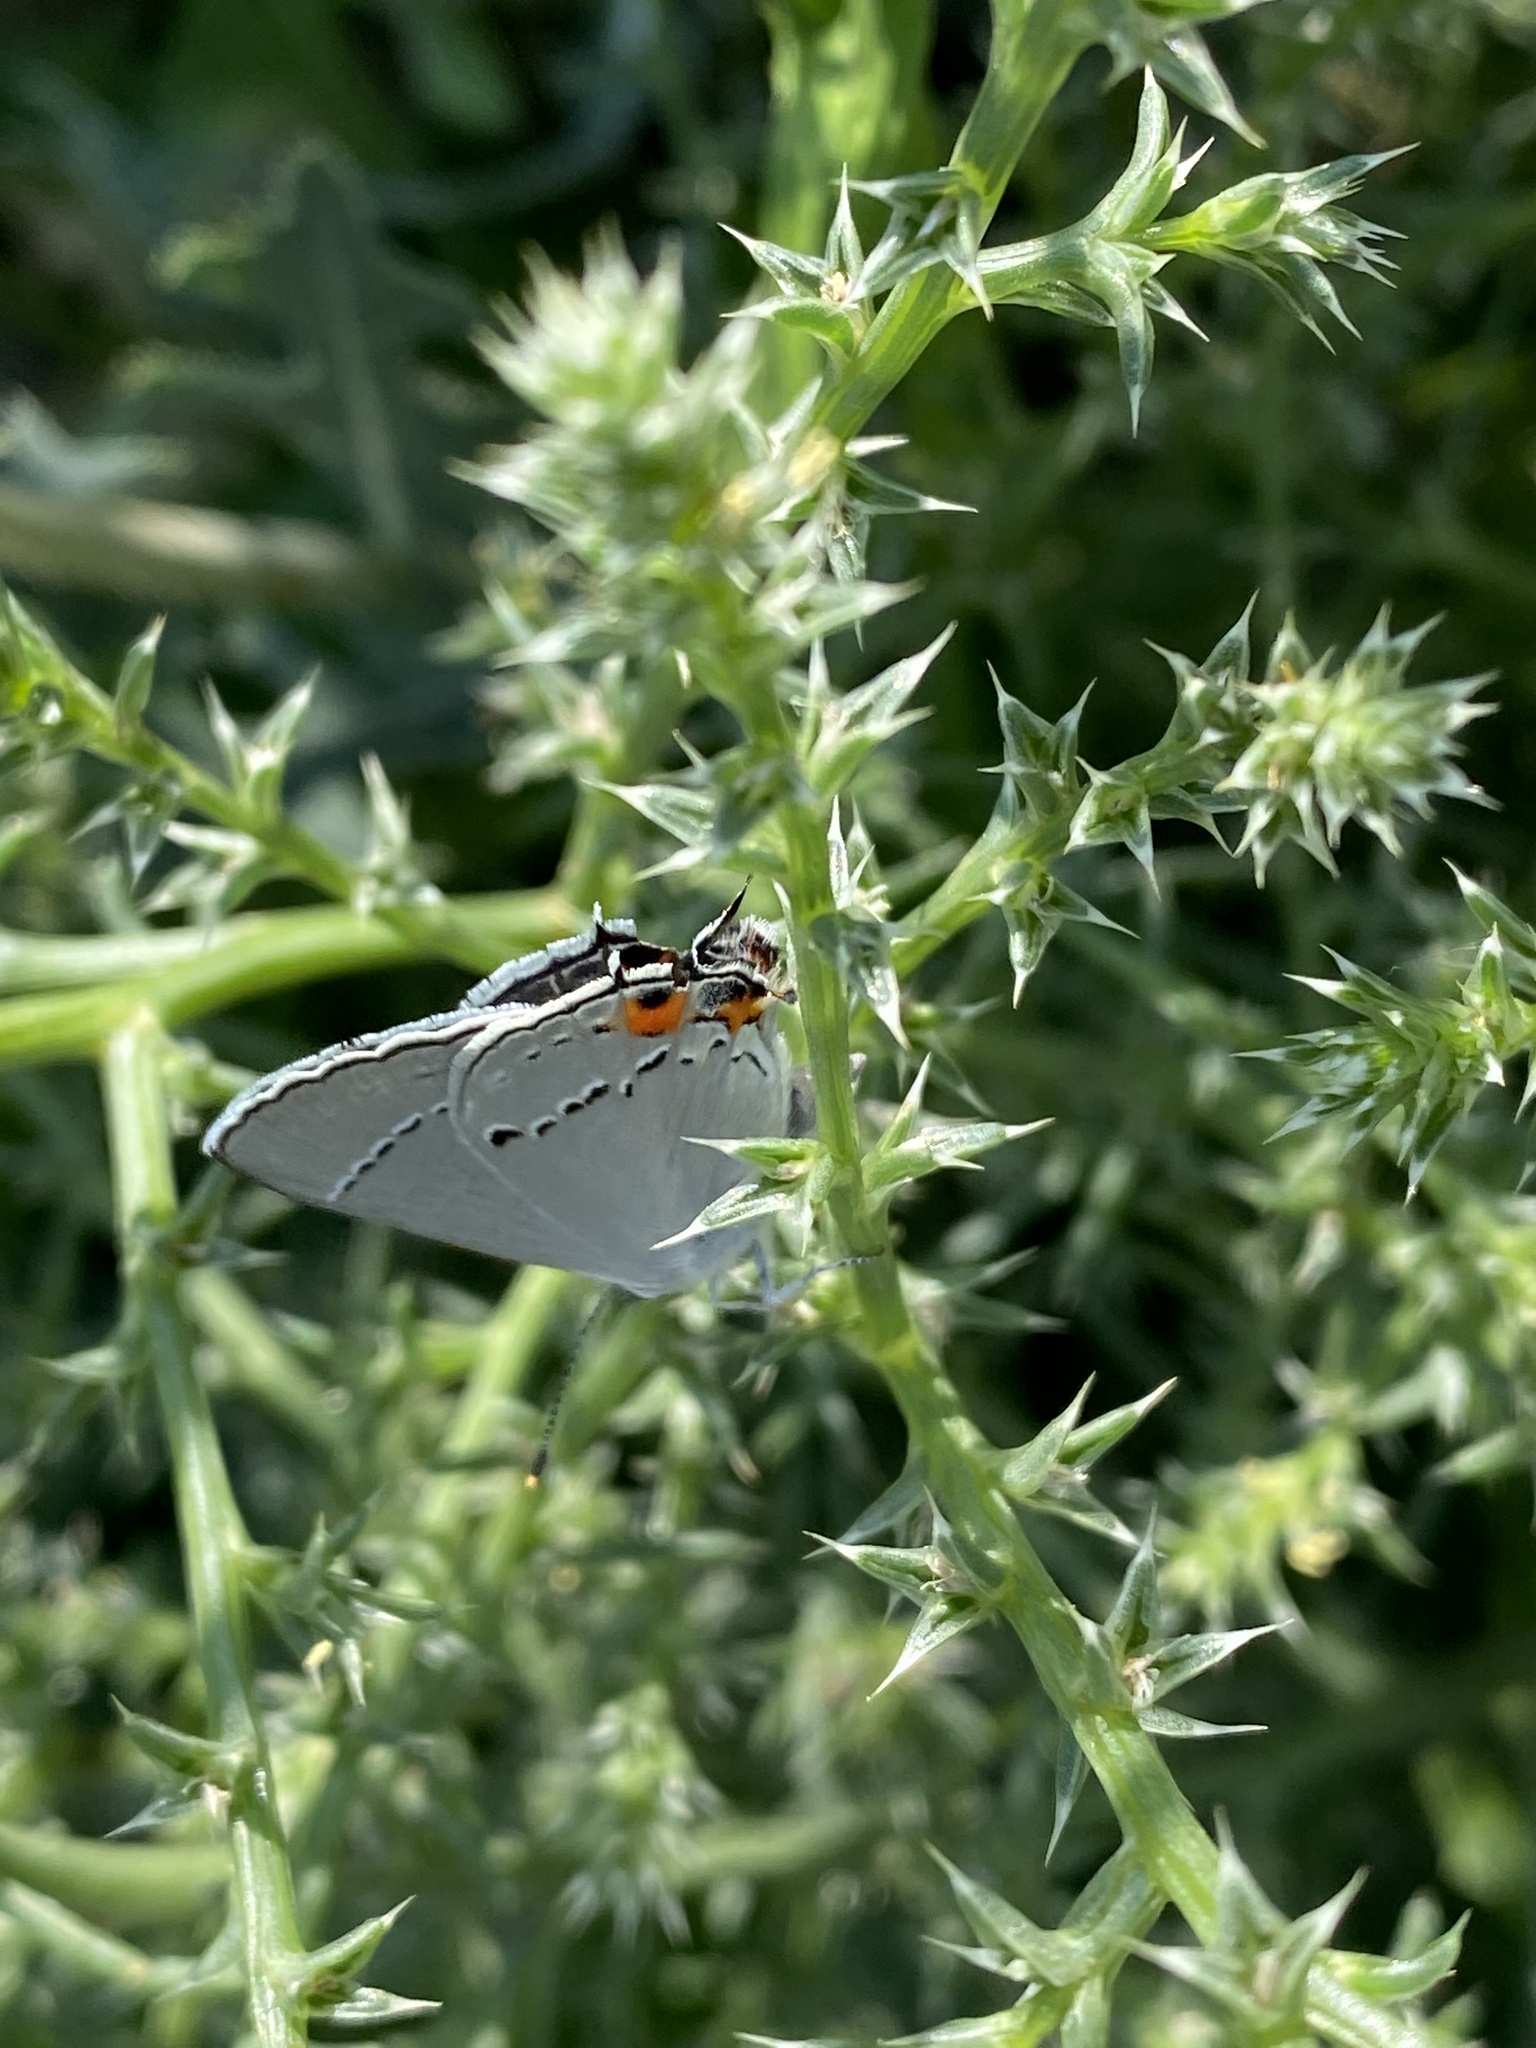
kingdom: Animalia
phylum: Arthropoda
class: Insecta
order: Lepidoptera
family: Lycaenidae
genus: Strymon
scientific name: Strymon melinus
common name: Gray hairstreak
